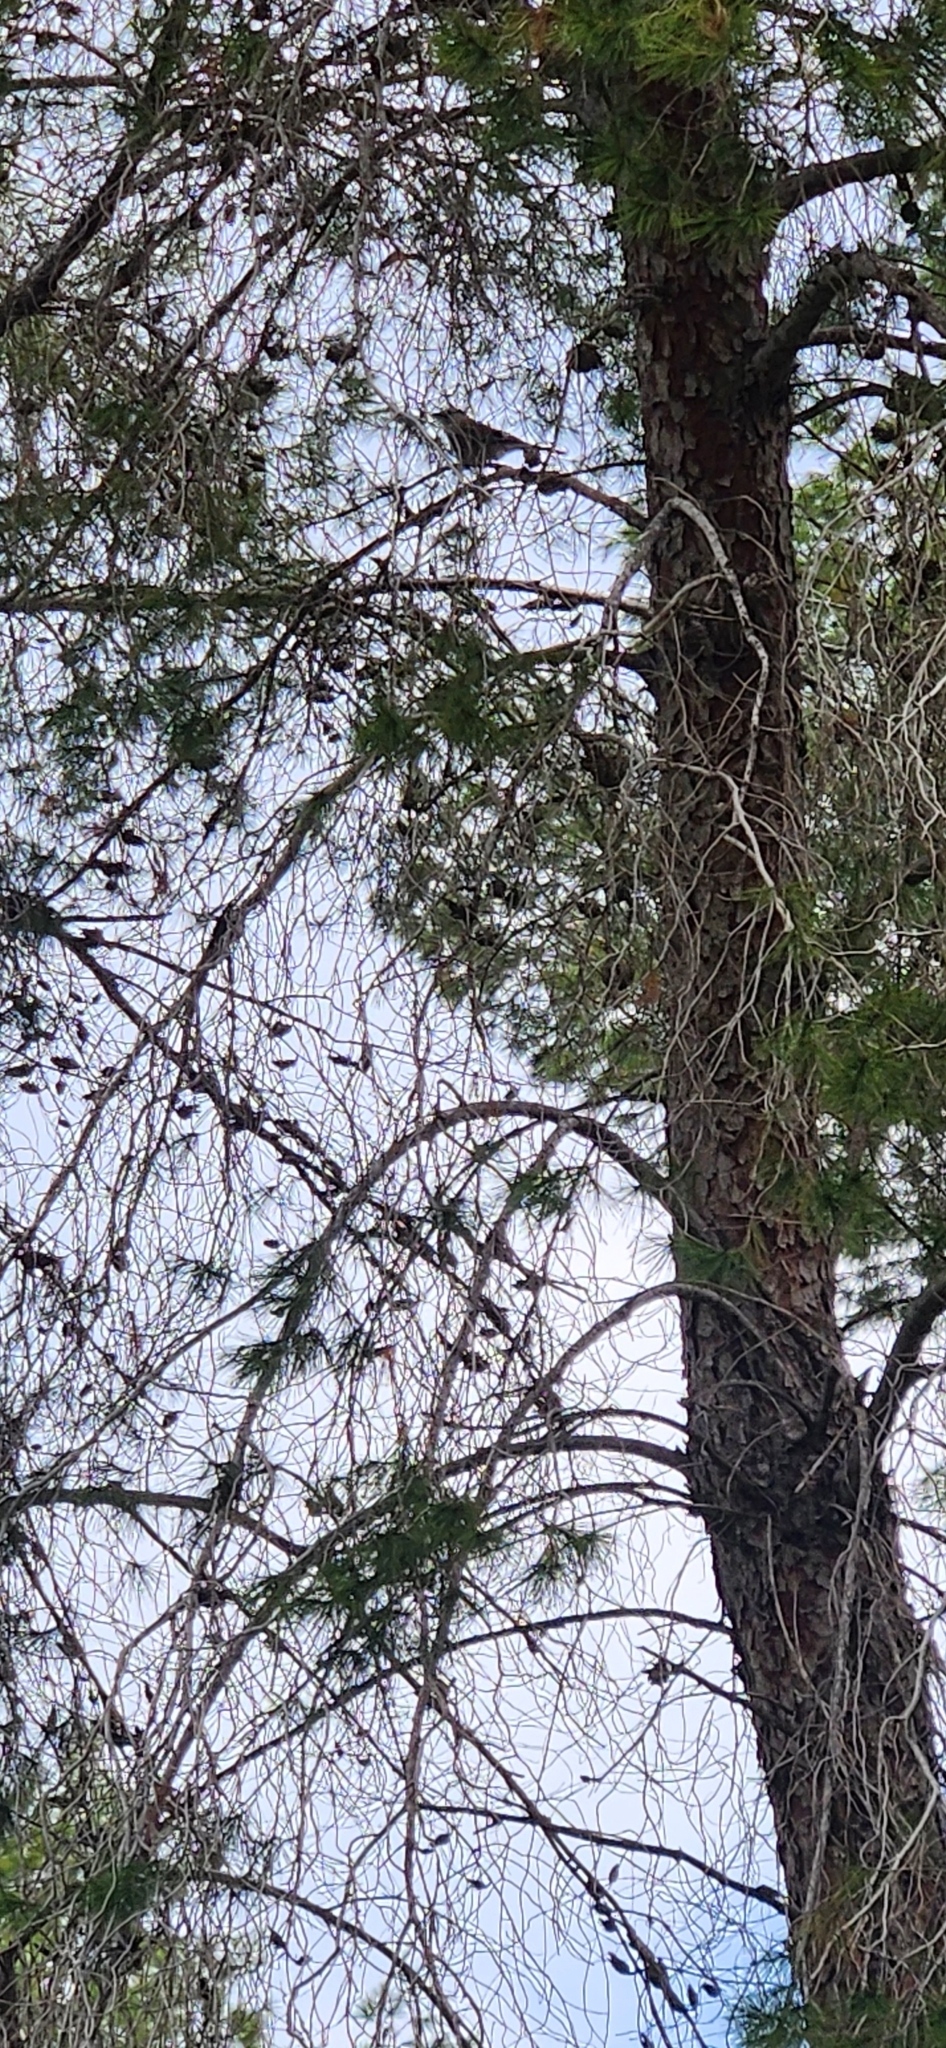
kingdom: Animalia
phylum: Chordata
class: Aves
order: Passeriformes
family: Corvidae
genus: Garrulus
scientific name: Garrulus glandarius
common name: Eurasian jay
